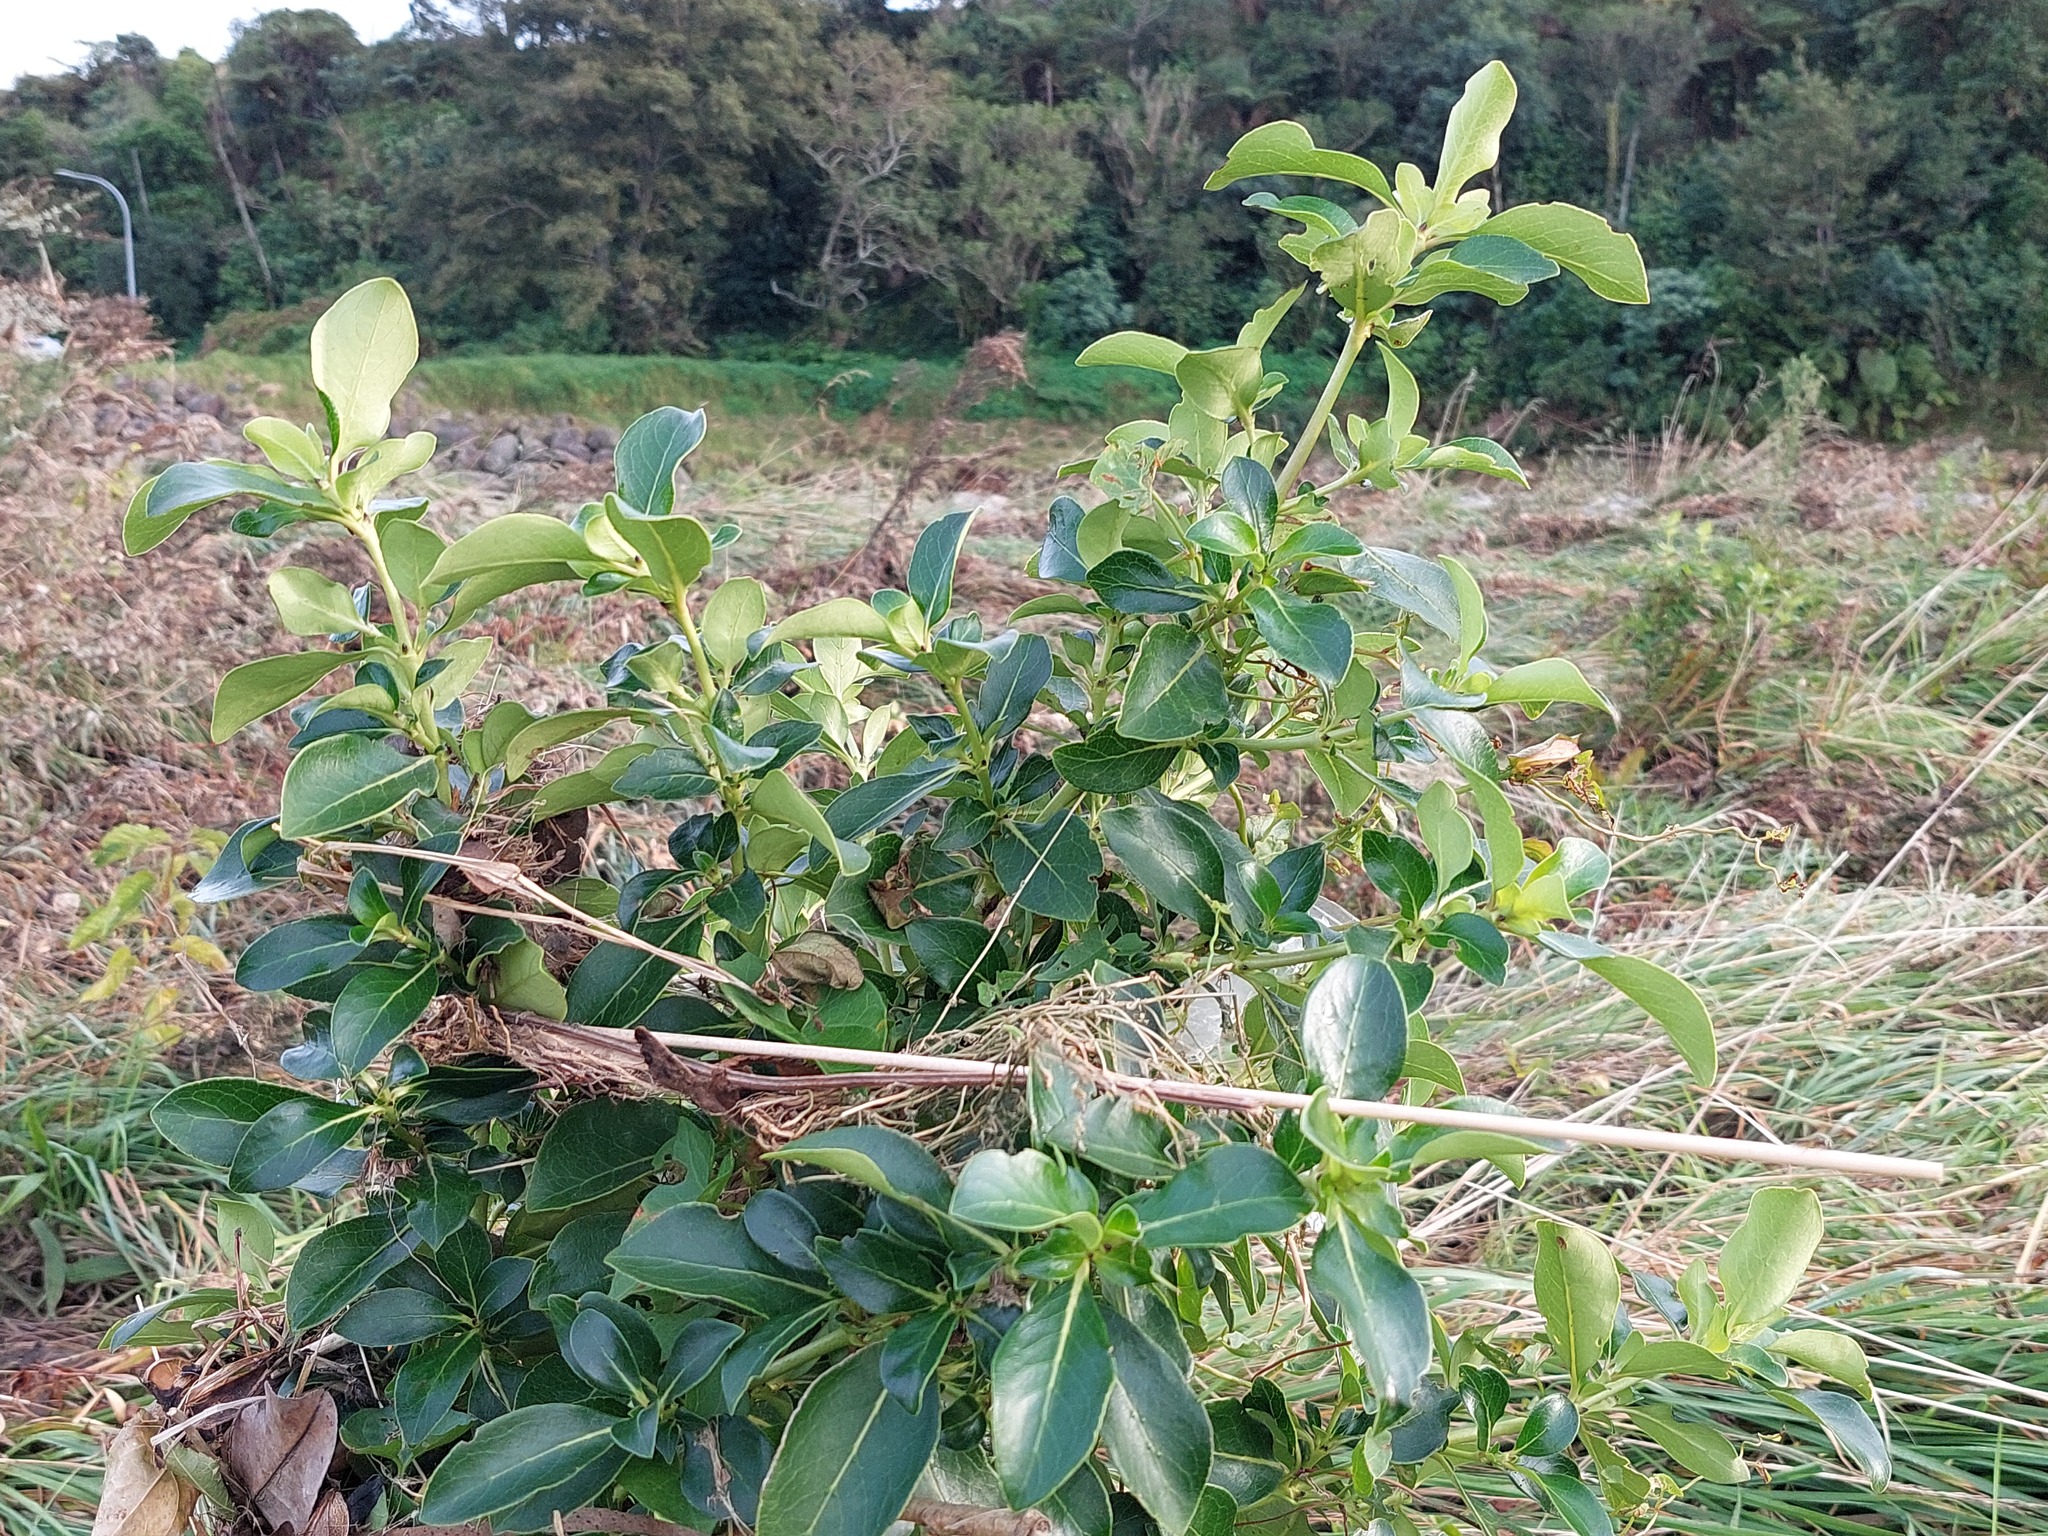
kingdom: Plantae
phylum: Tracheophyta
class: Magnoliopsida
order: Gentianales
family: Rubiaceae
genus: Coprosma
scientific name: Coprosma robusta
